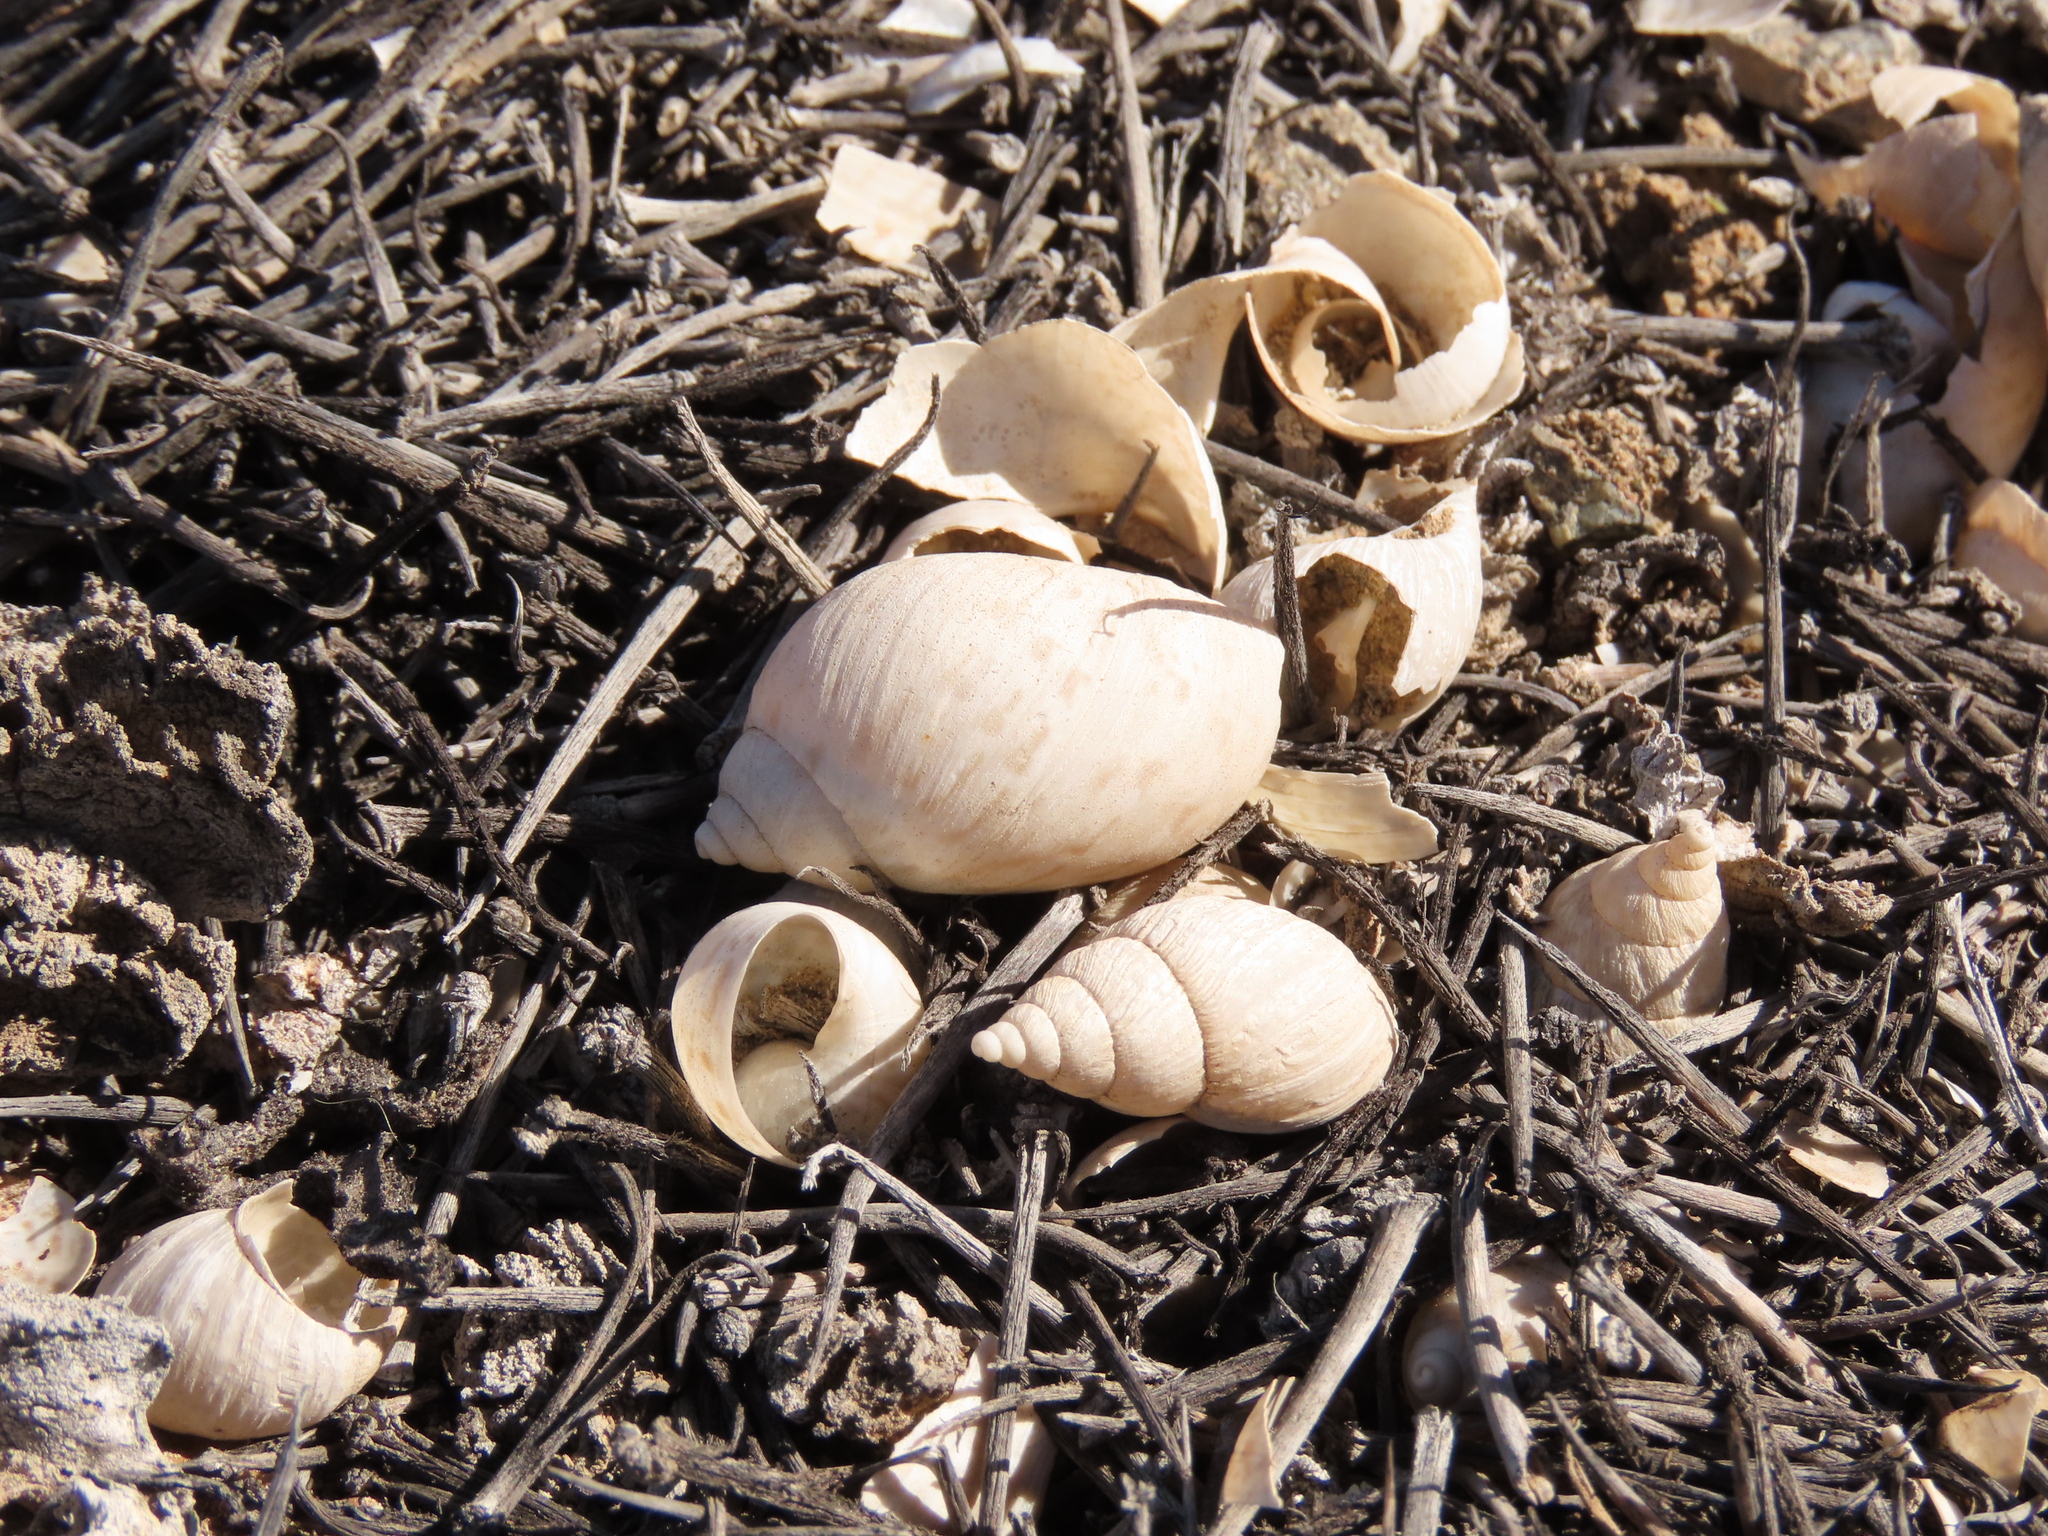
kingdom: Animalia
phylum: Mollusca
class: Gastropoda
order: Stylommatophora
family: Bothriembryontidae
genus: Plectostylus
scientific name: Plectostylus coturnix
